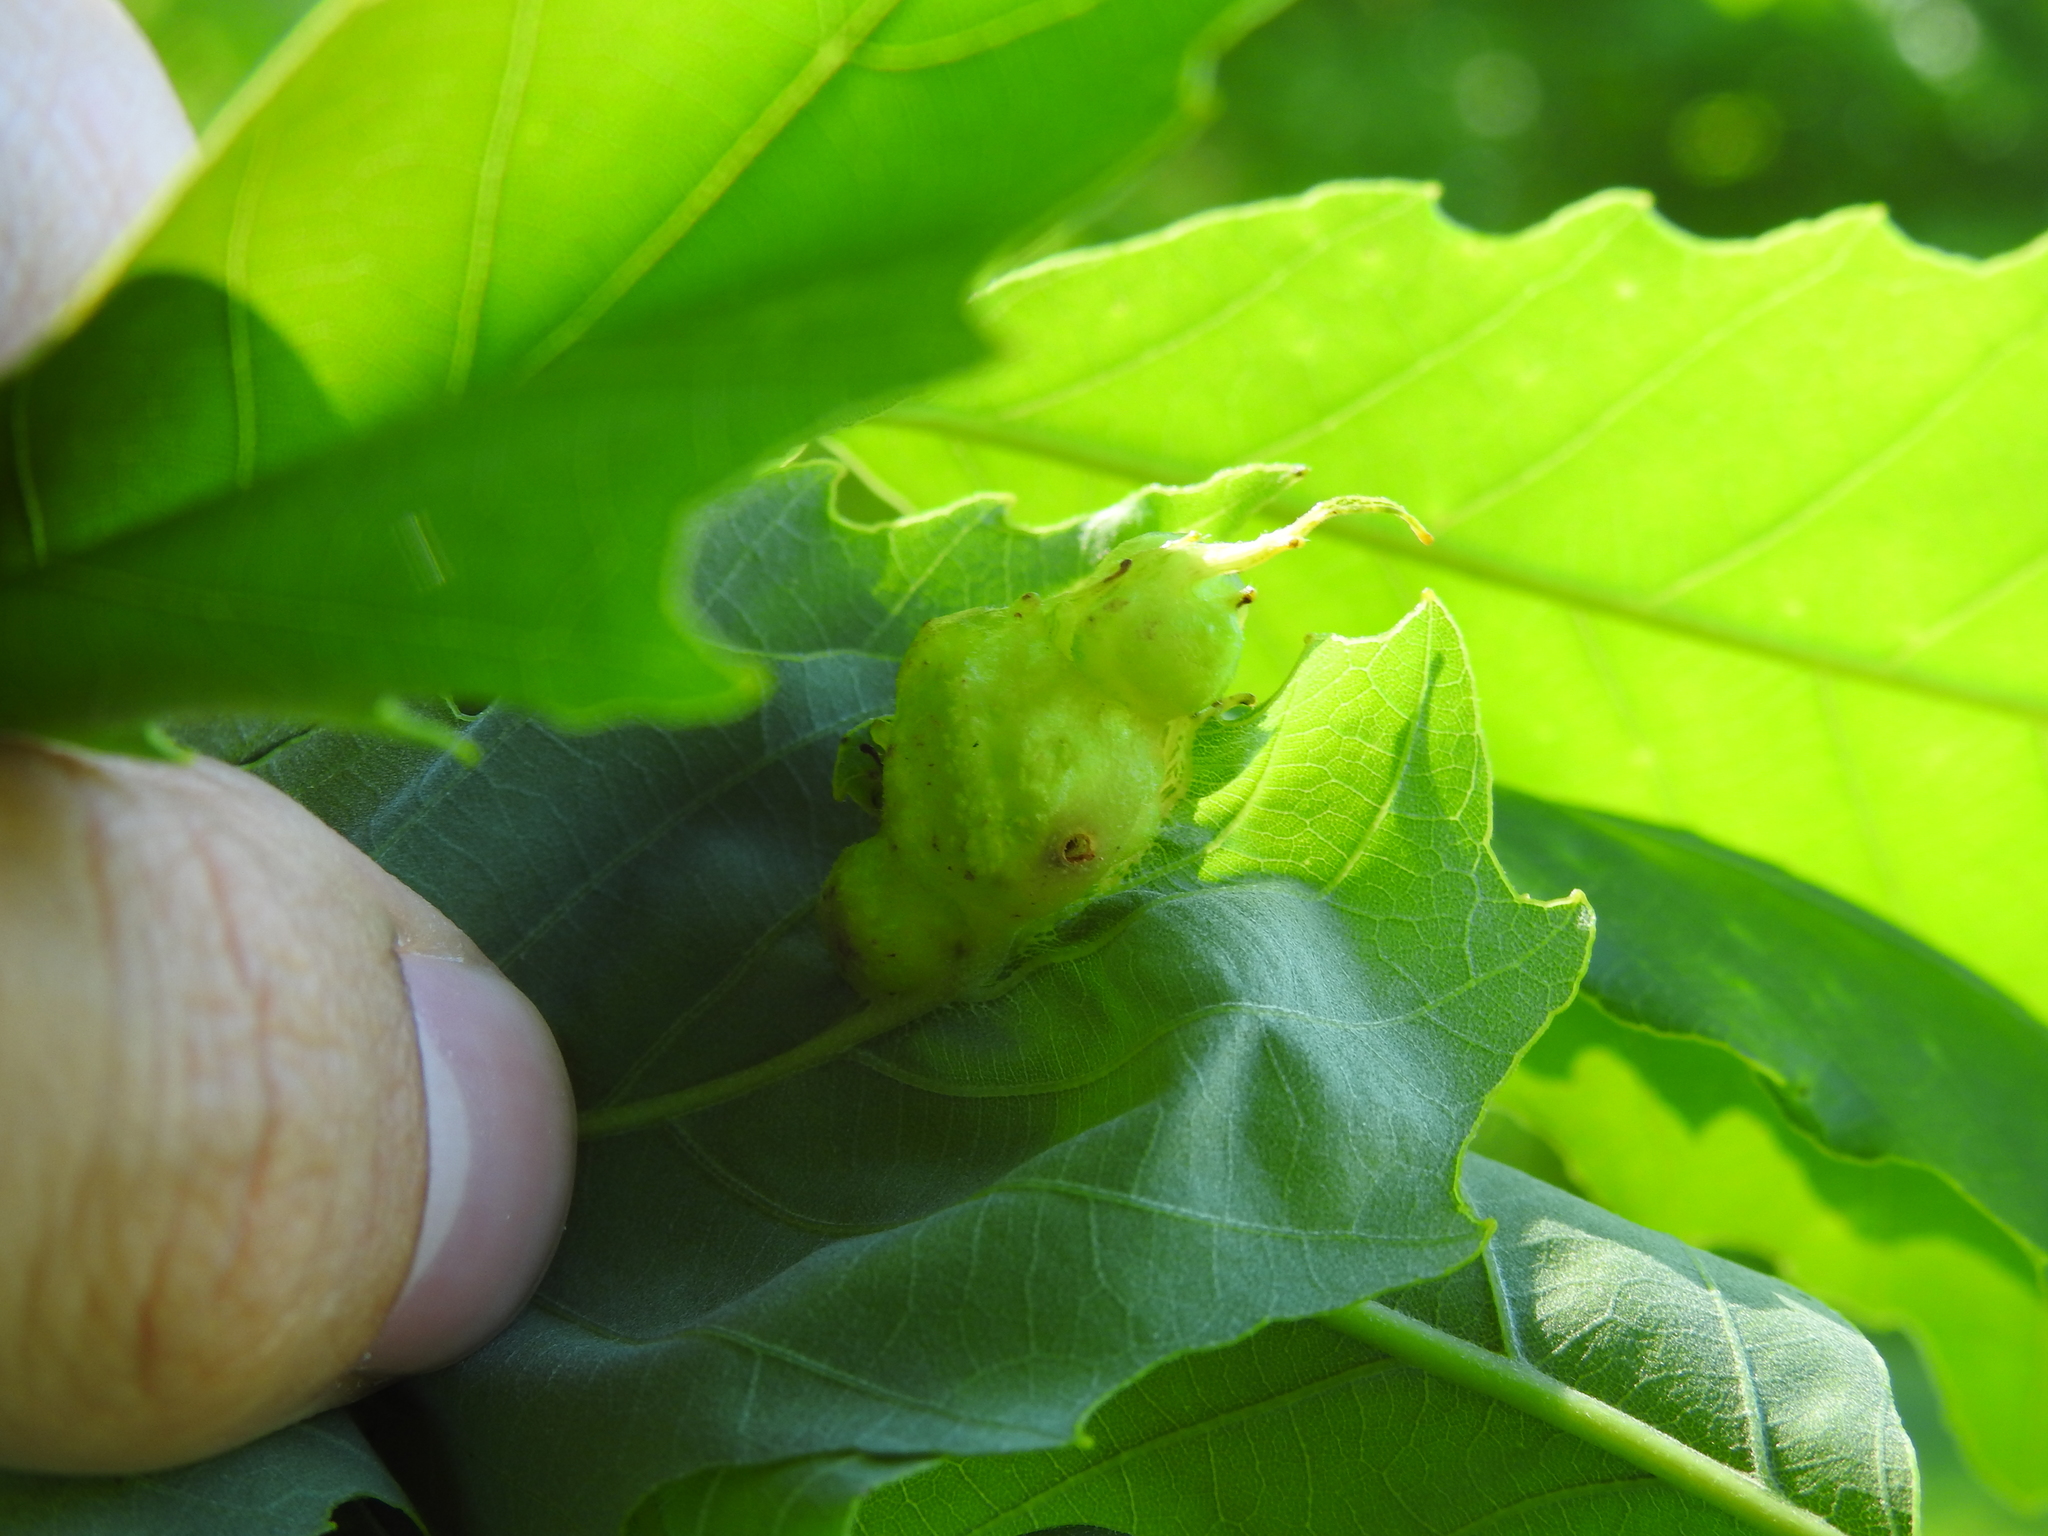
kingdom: Animalia
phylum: Arthropoda
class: Insecta
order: Hymenoptera
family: Cynipidae
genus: Neuroterus
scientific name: Neuroterus quercusirregularis
